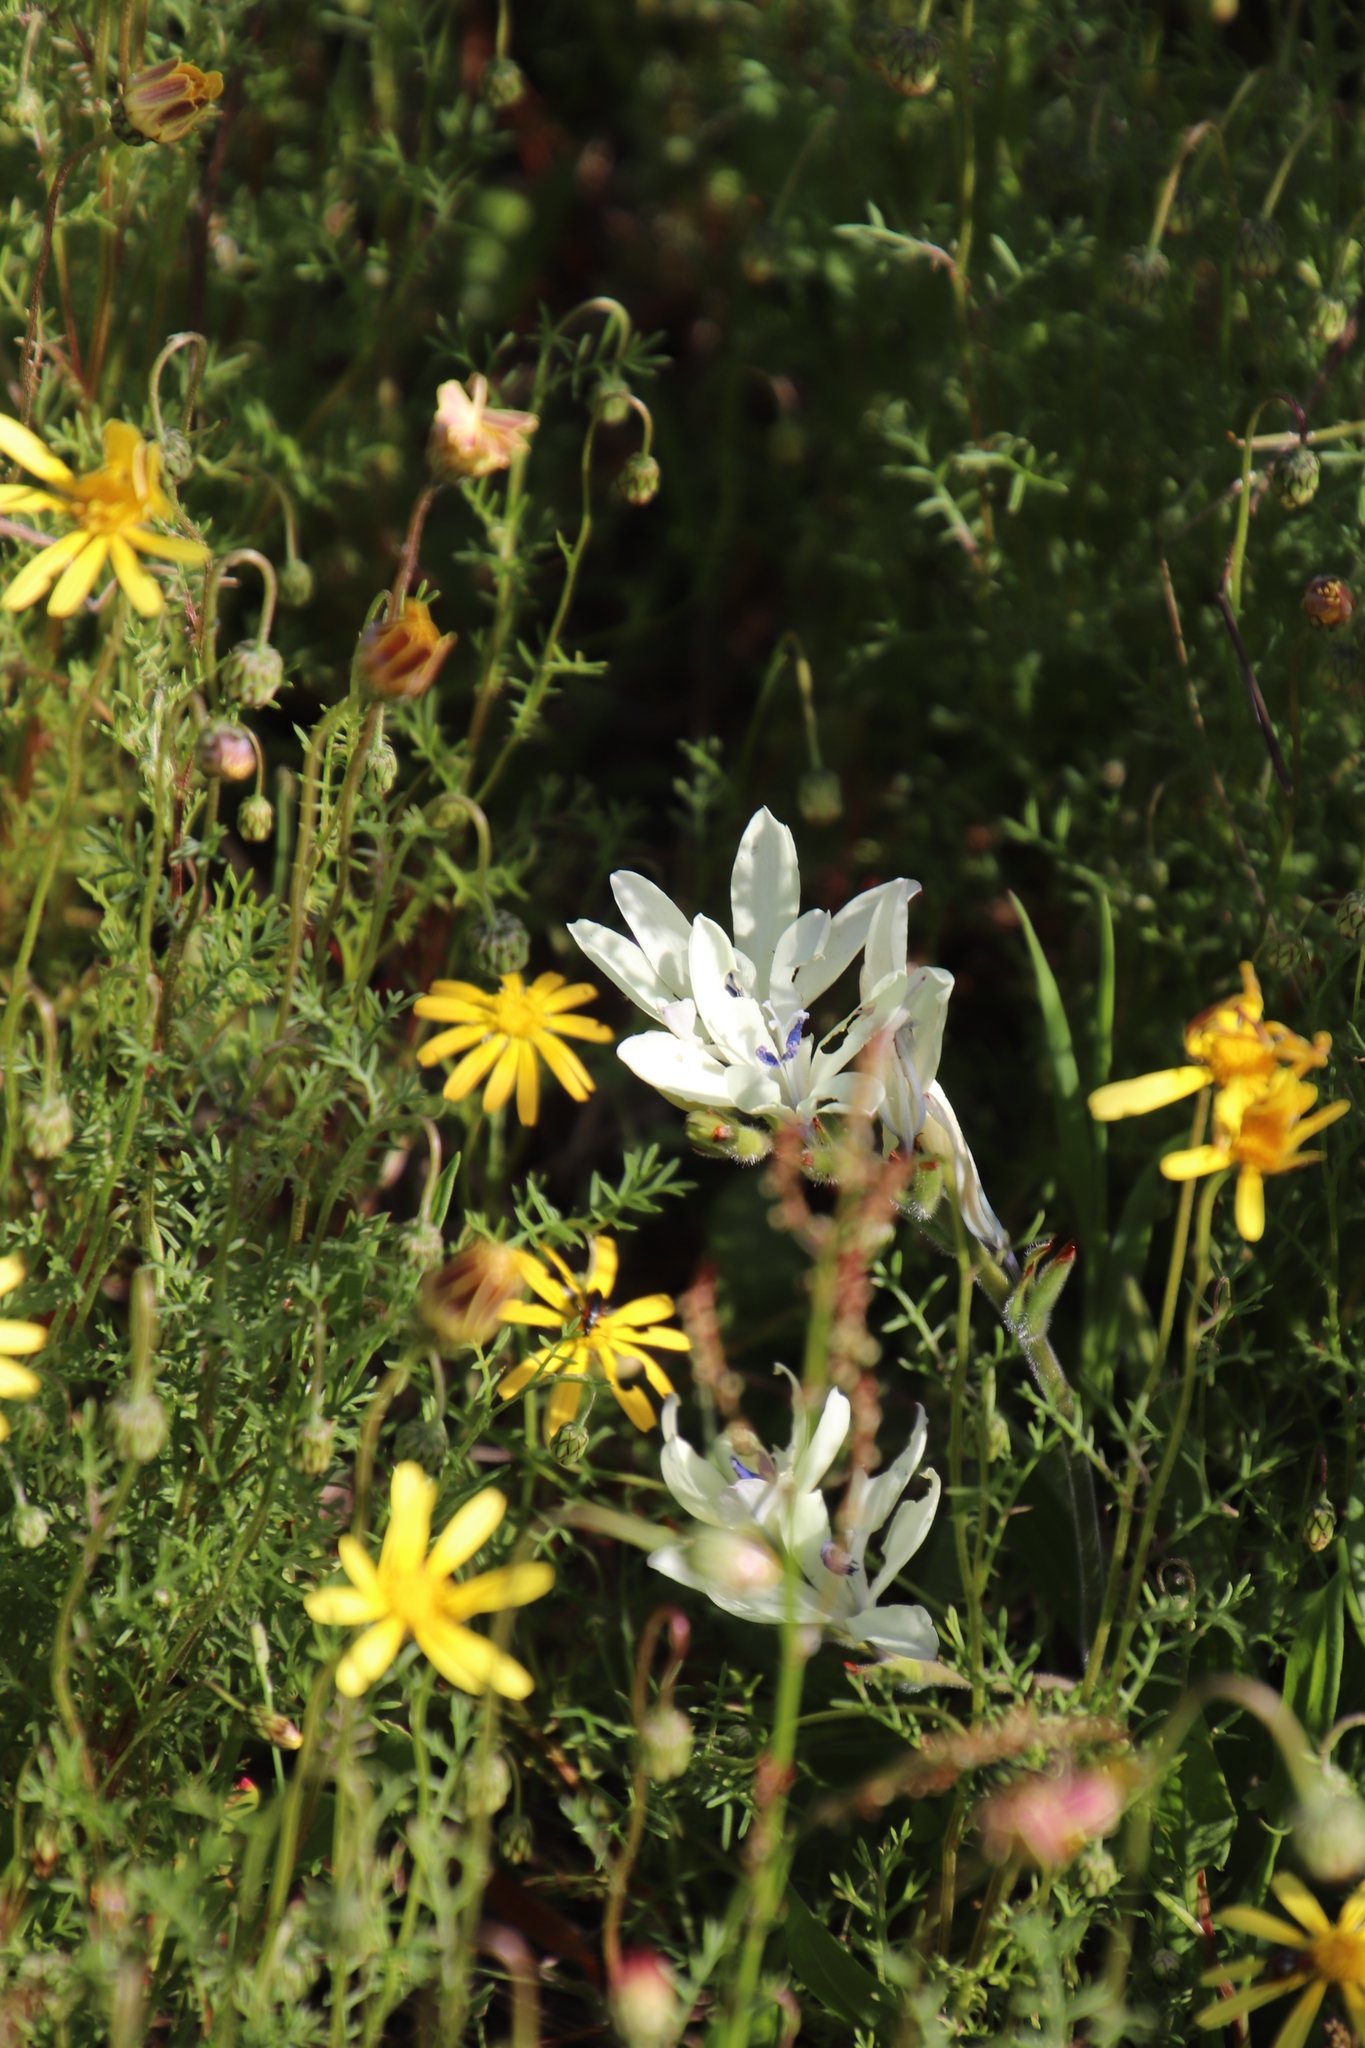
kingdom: Plantae
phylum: Tracheophyta
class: Liliopsida
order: Asparagales
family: Iridaceae
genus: Babiana
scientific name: Babiana nervosa
